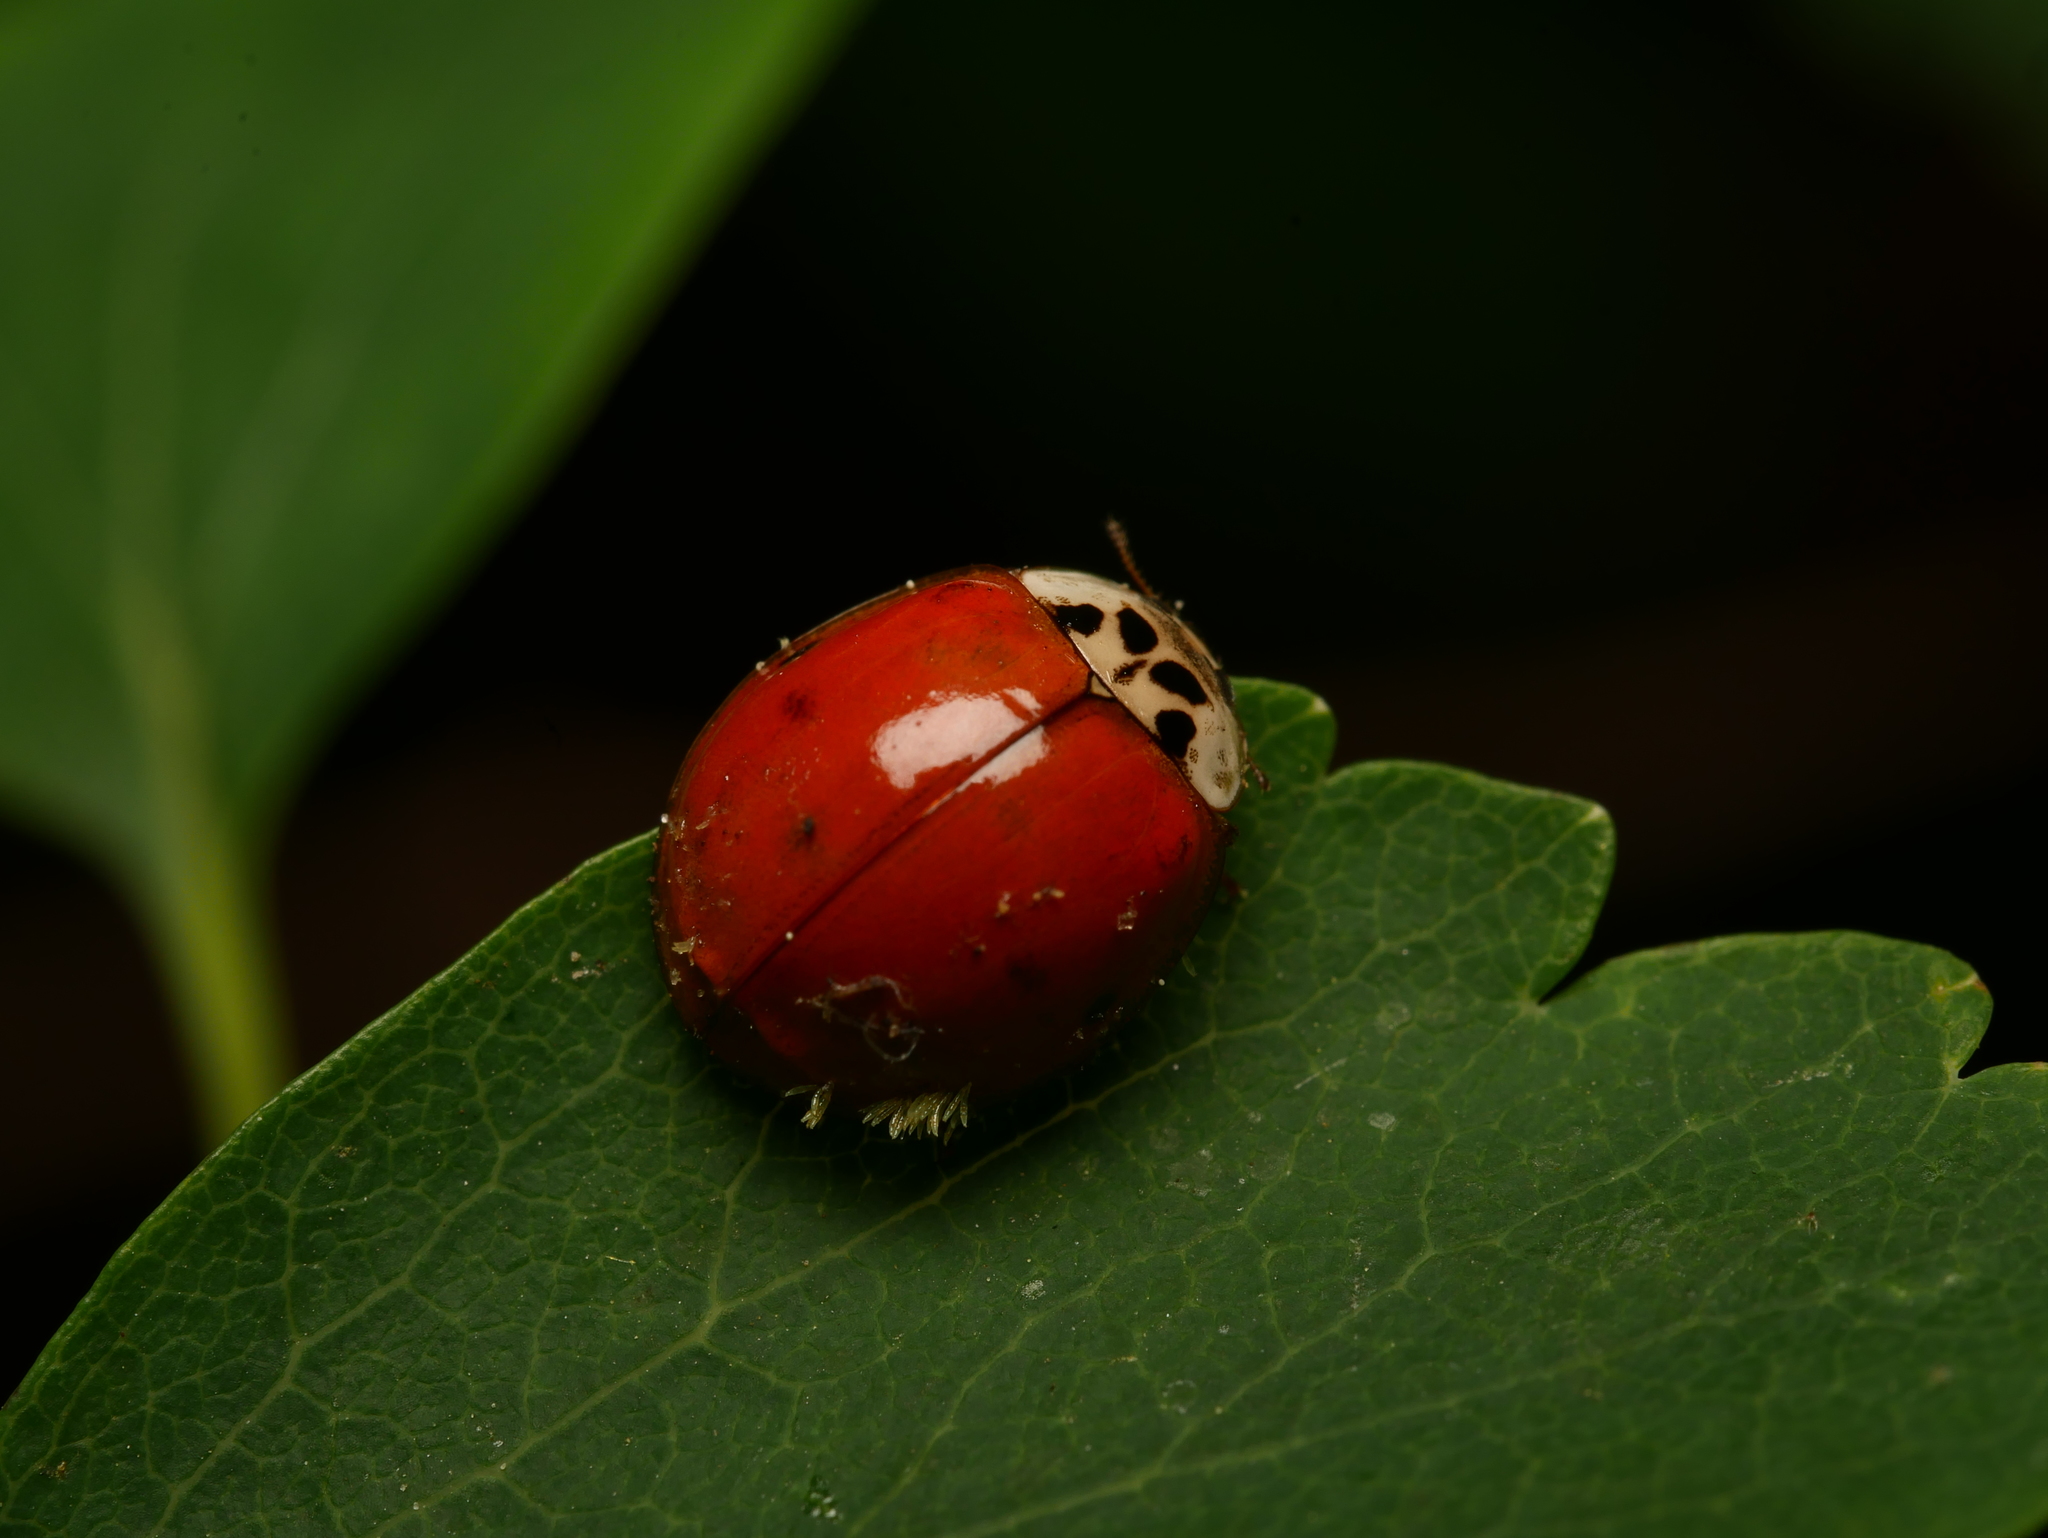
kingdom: Animalia
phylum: Arthropoda
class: Insecta
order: Coleoptera
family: Coccinellidae
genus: Harmonia
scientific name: Harmonia axyridis
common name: Harlequin ladybird
